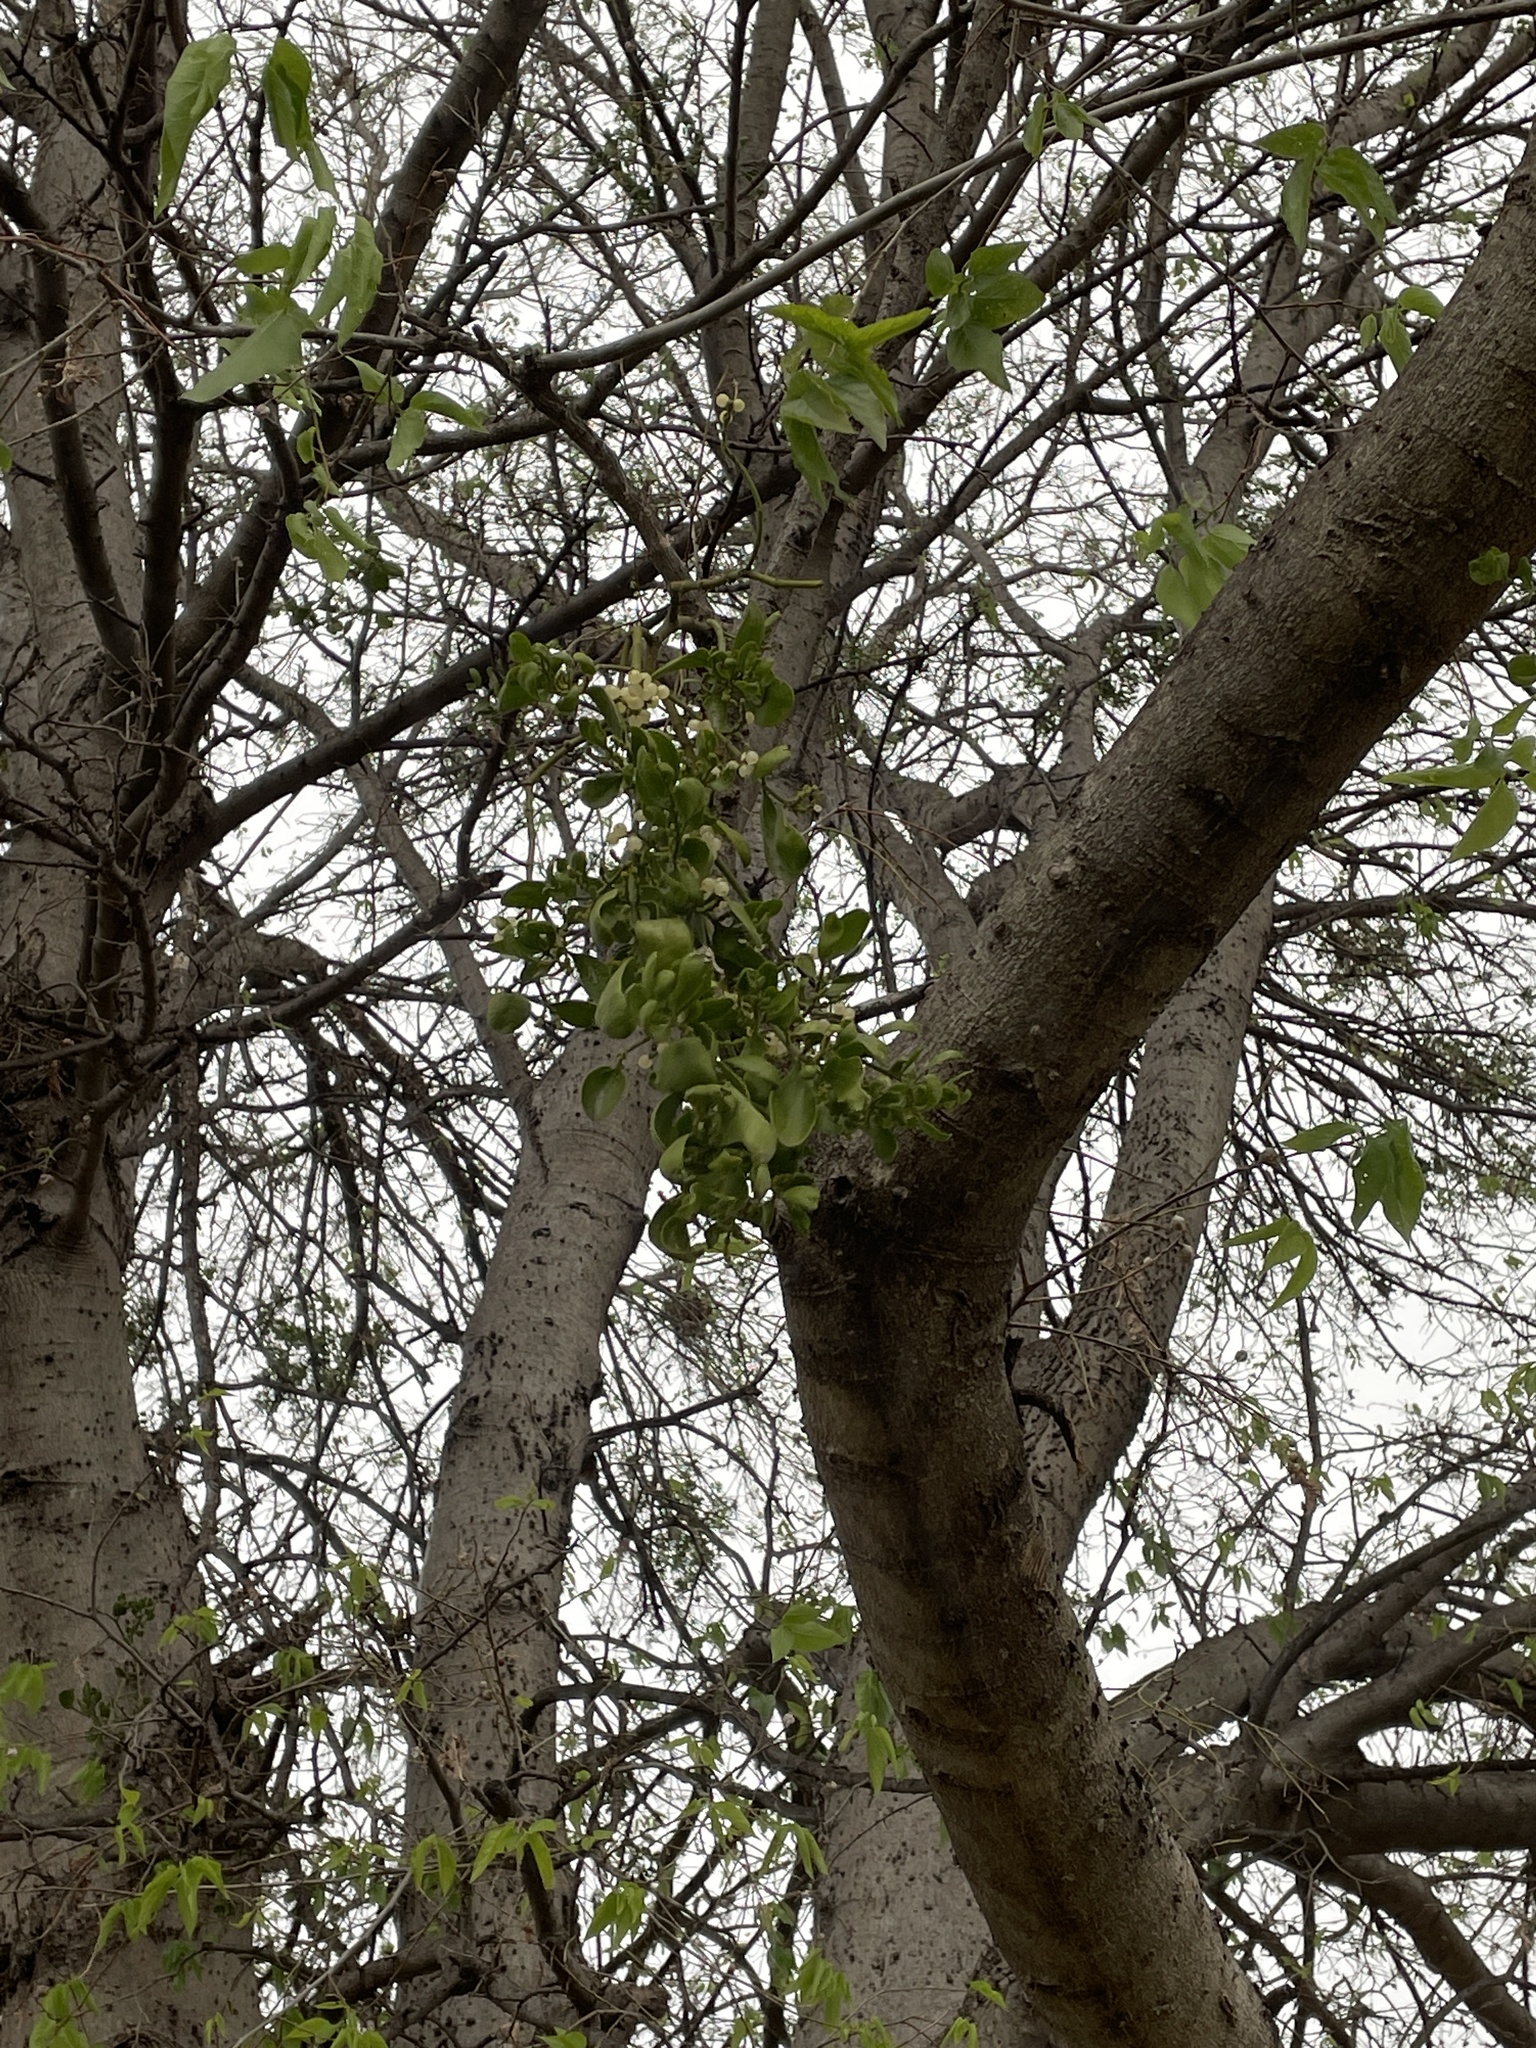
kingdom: Plantae
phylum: Tracheophyta
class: Magnoliopsida
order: Santalales
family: Viscaceae
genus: Phoradendron
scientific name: Phoradendron leucarpum
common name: Pacific mistletoe
